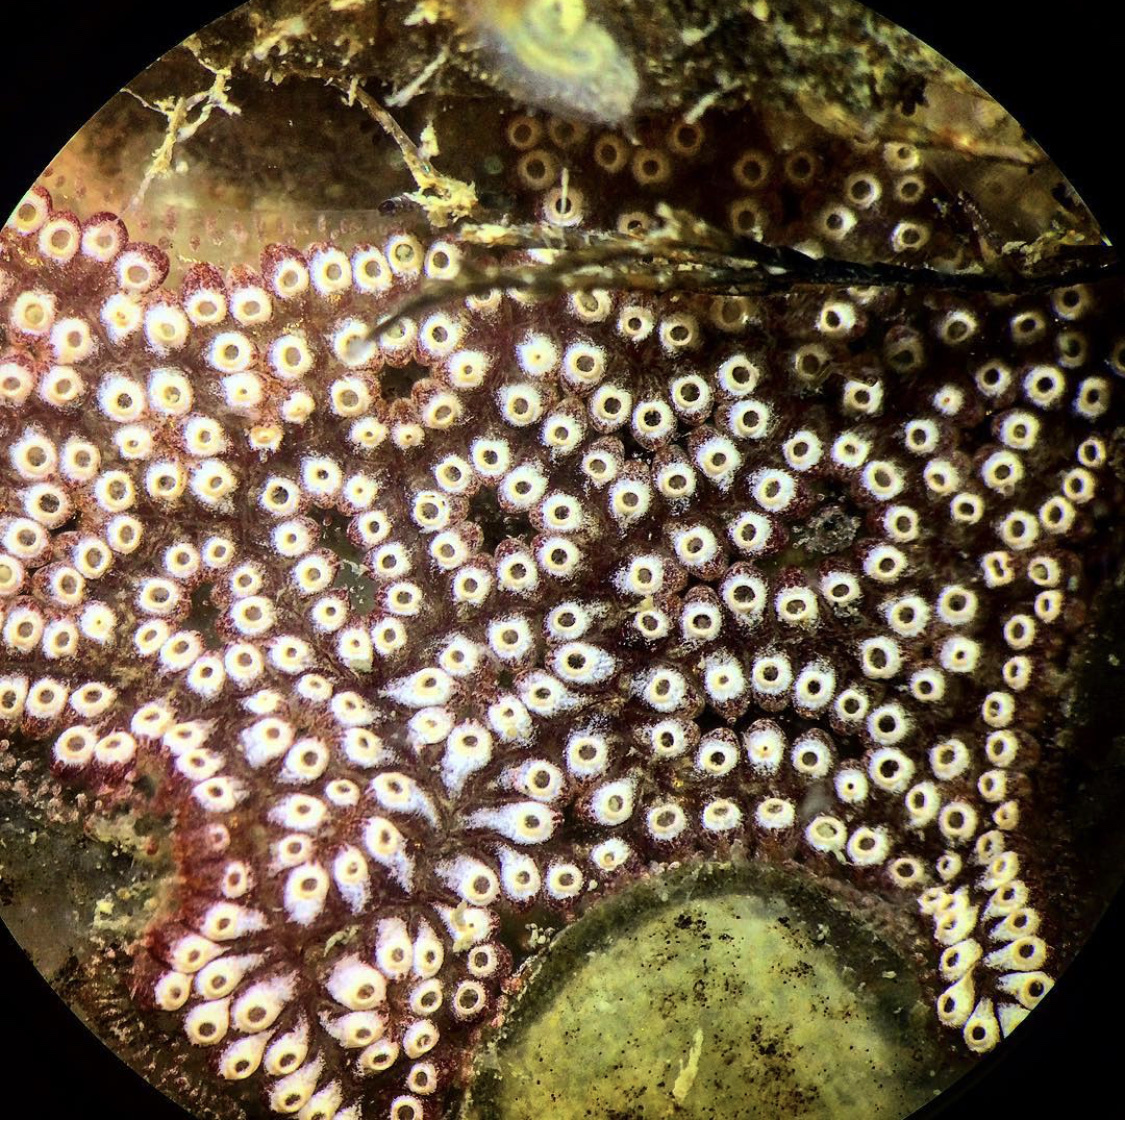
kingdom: Animalia
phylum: Chordata
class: Ascidiacea
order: Stolidobranchia
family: Styelidae
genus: Botrylloides
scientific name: Botrylloides diegensis
